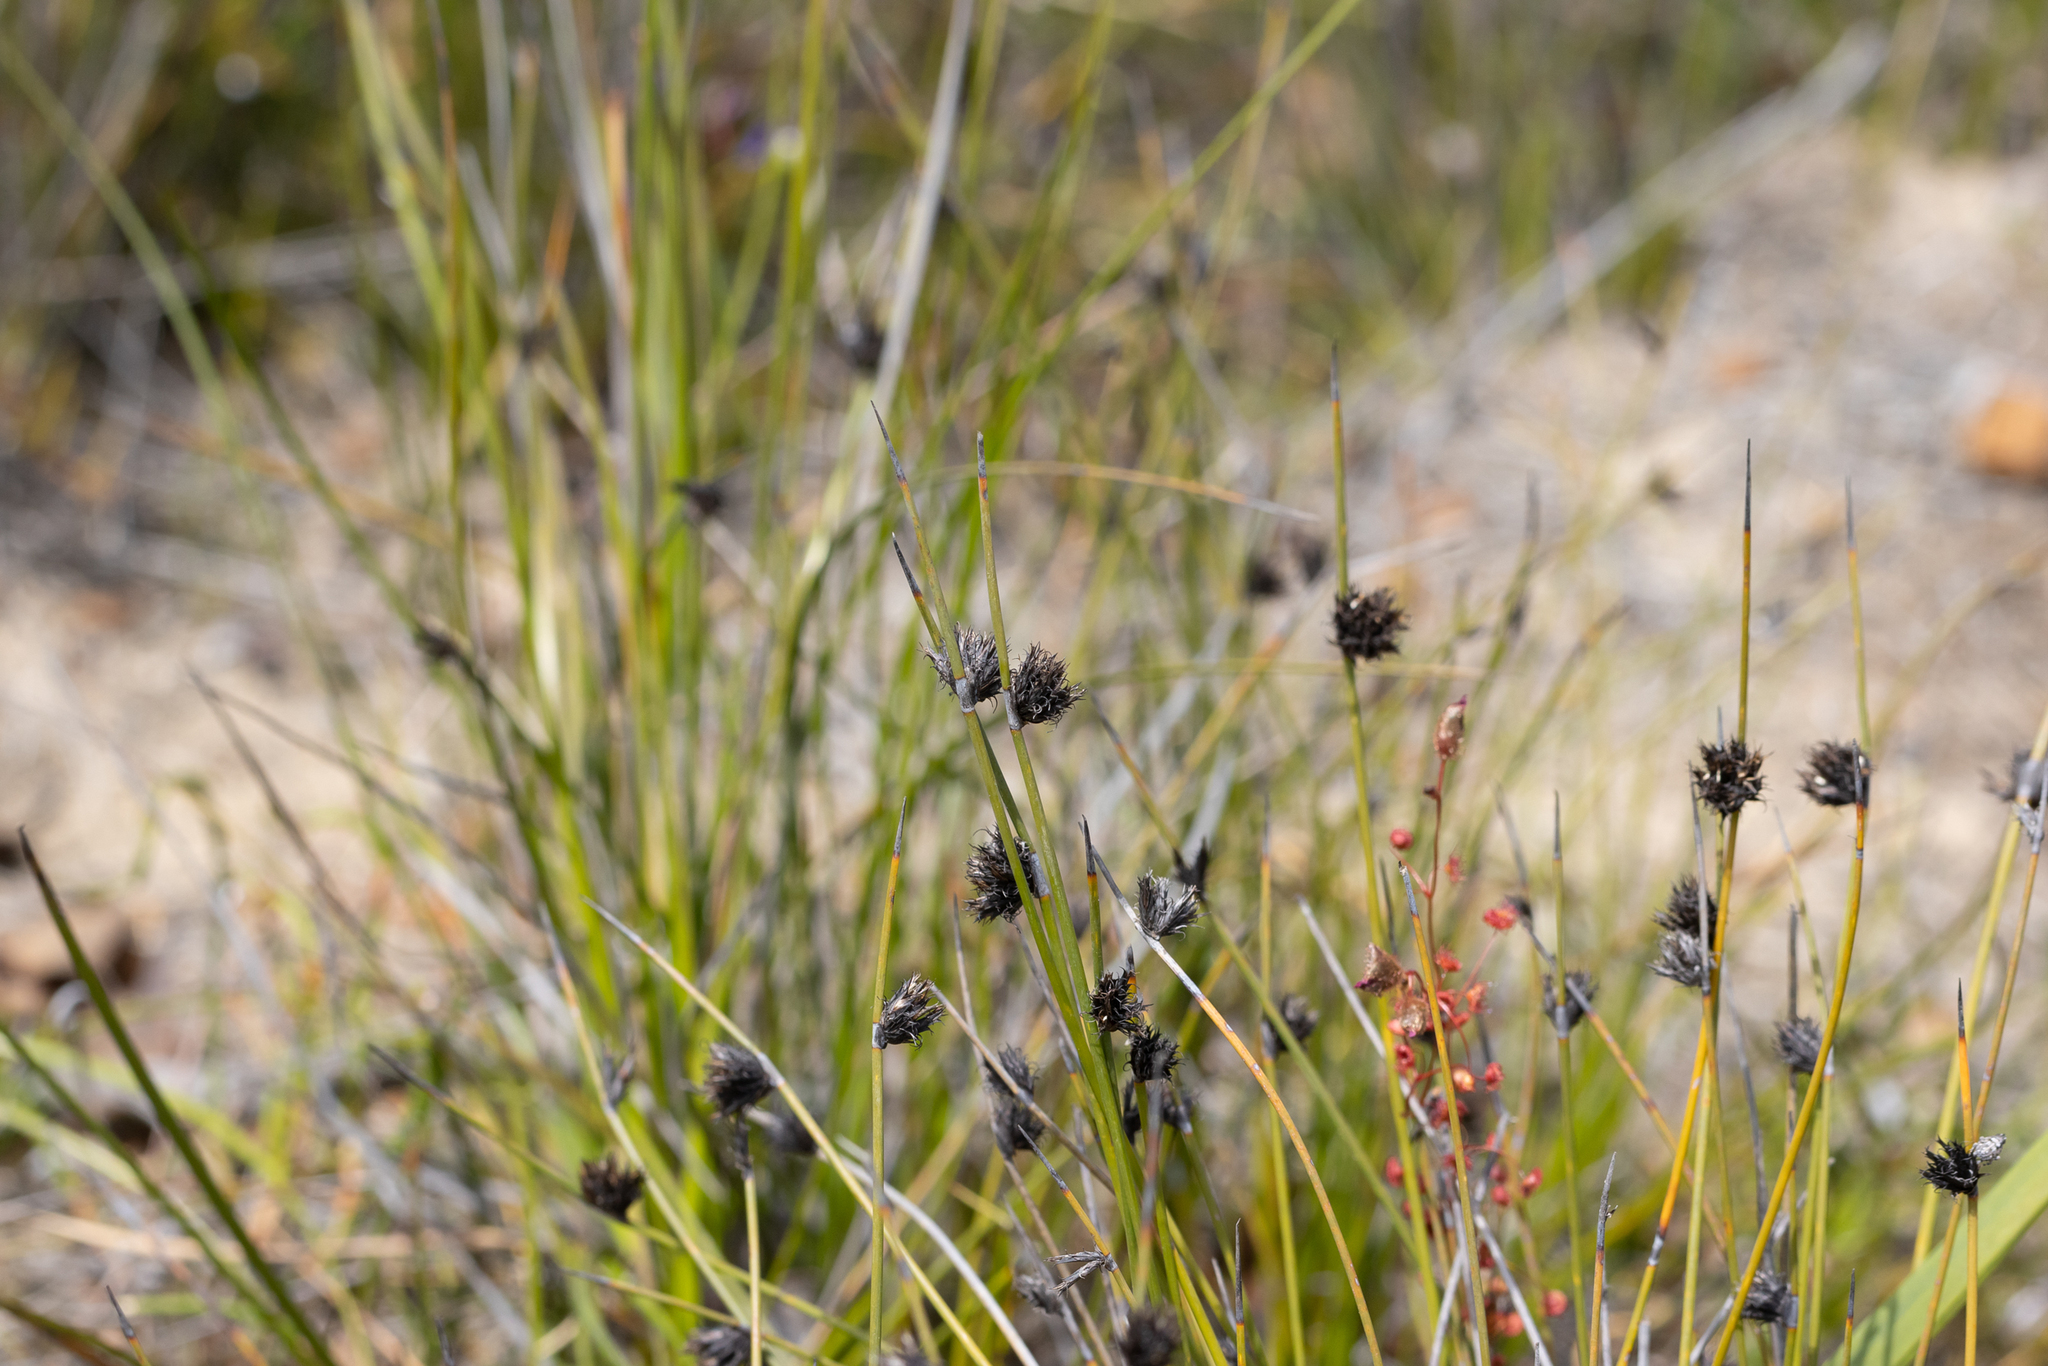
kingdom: Plantae
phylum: Tracheophyta
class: Liliopsida
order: Poales
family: Cyperaceae
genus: Mesomelaena
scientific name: Mesomelaena stygia
